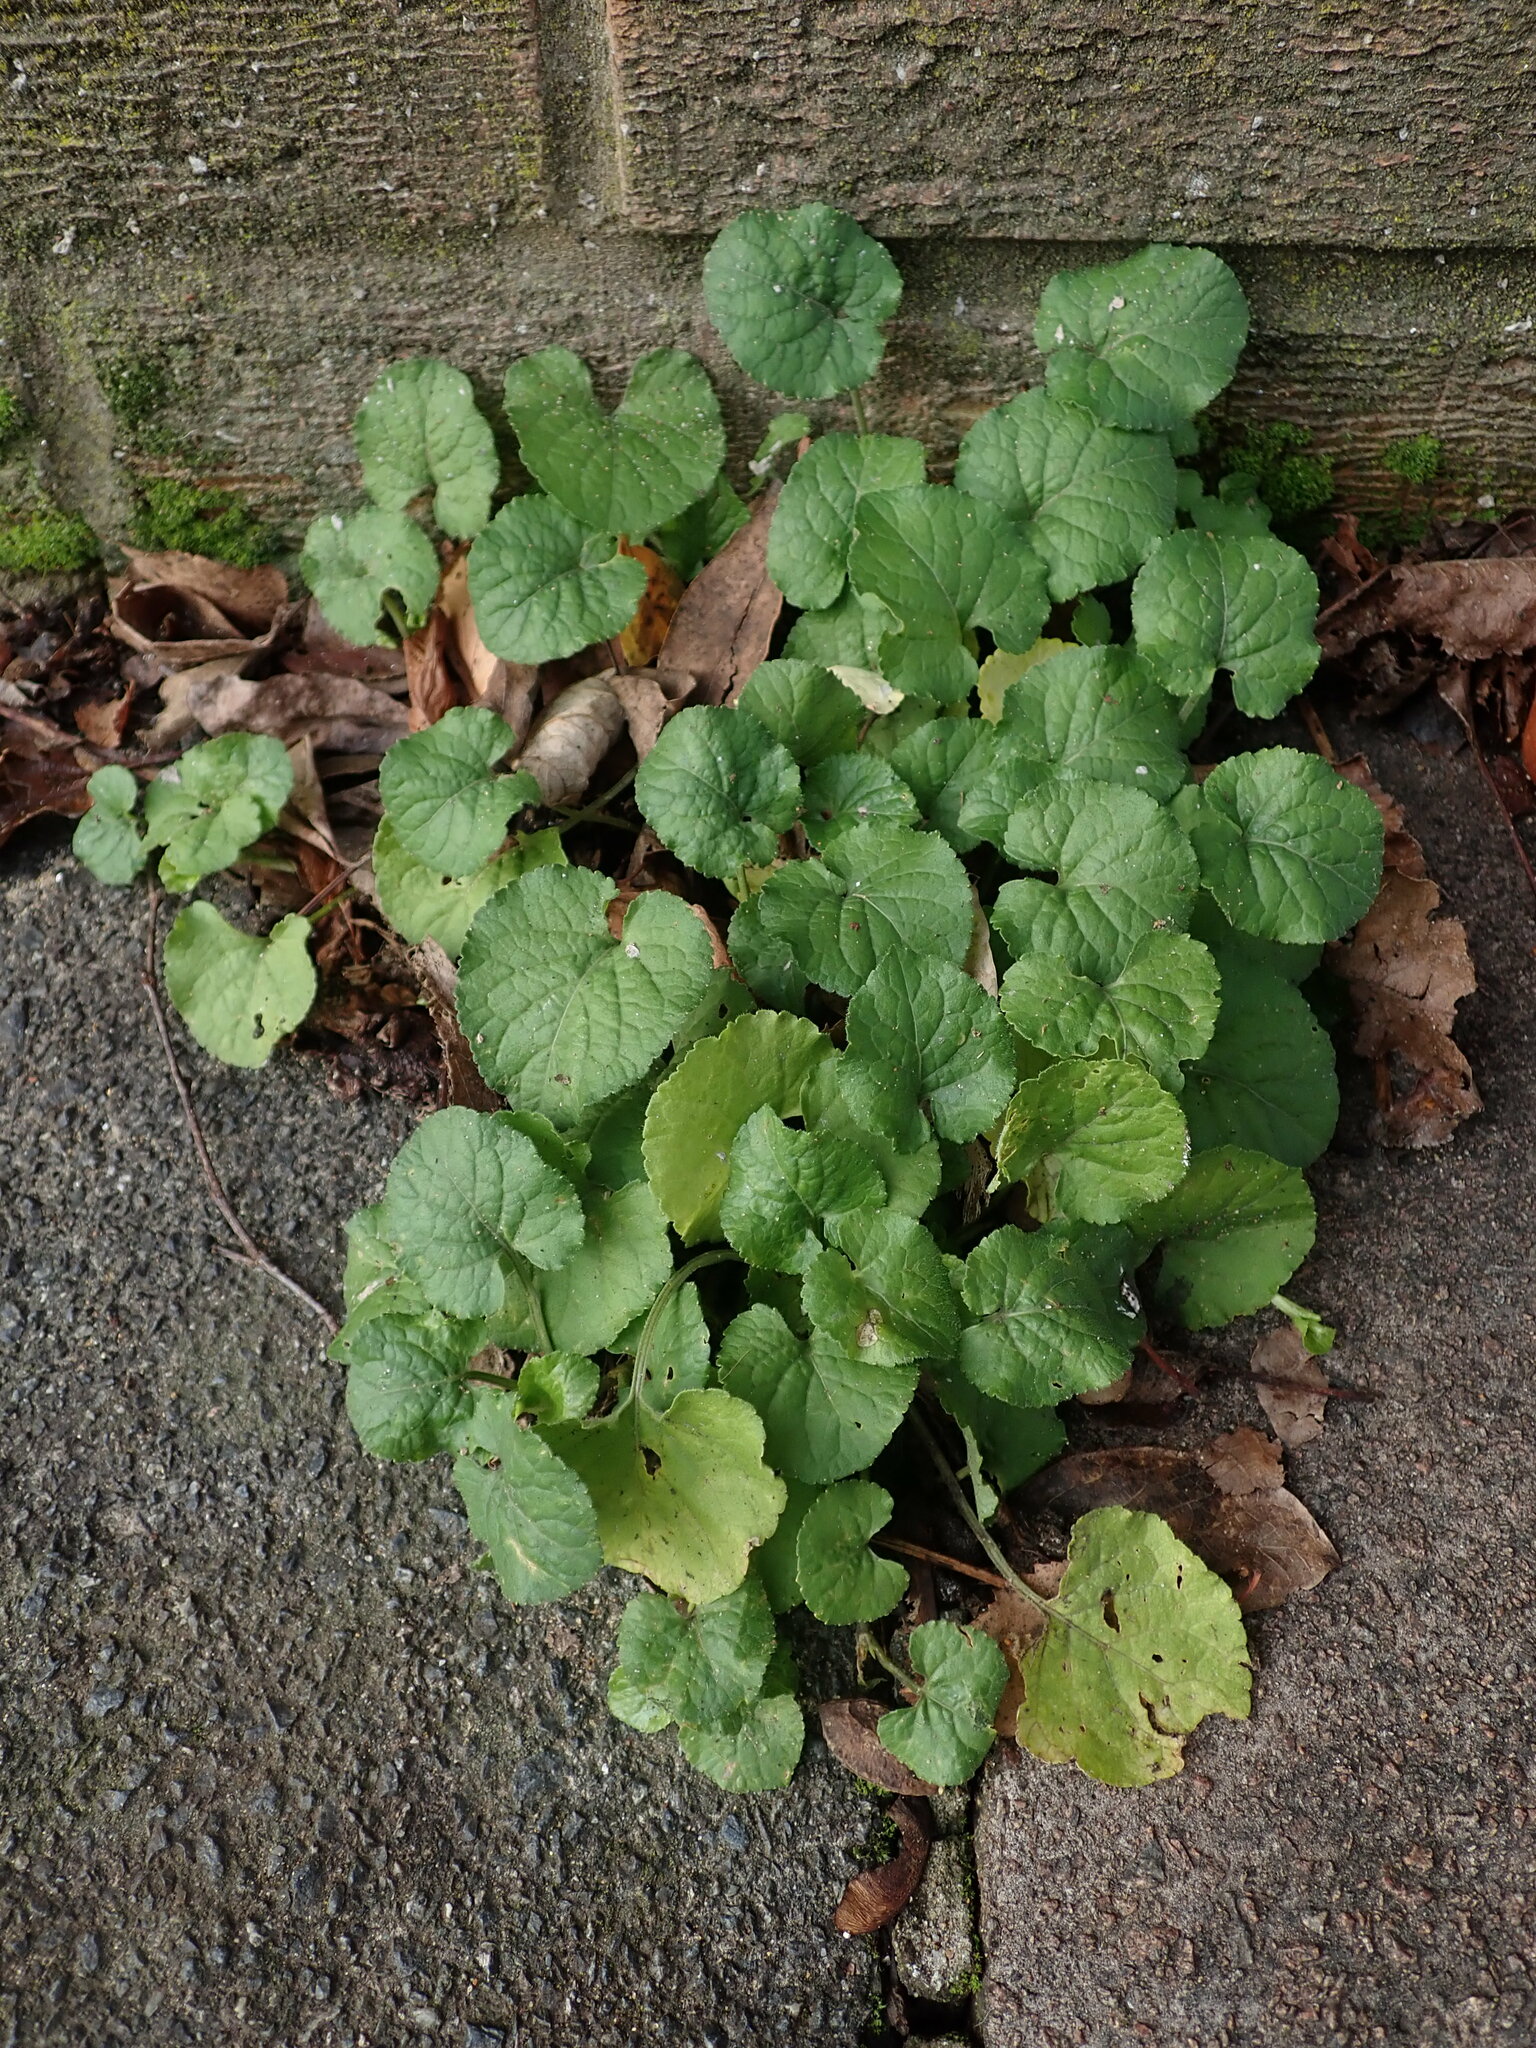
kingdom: Plantae
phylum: Tracheophyta
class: Magnoliopsida
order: Malpighiales
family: Violaceae
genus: Viola
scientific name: Viola odorata
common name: Sweet violet
